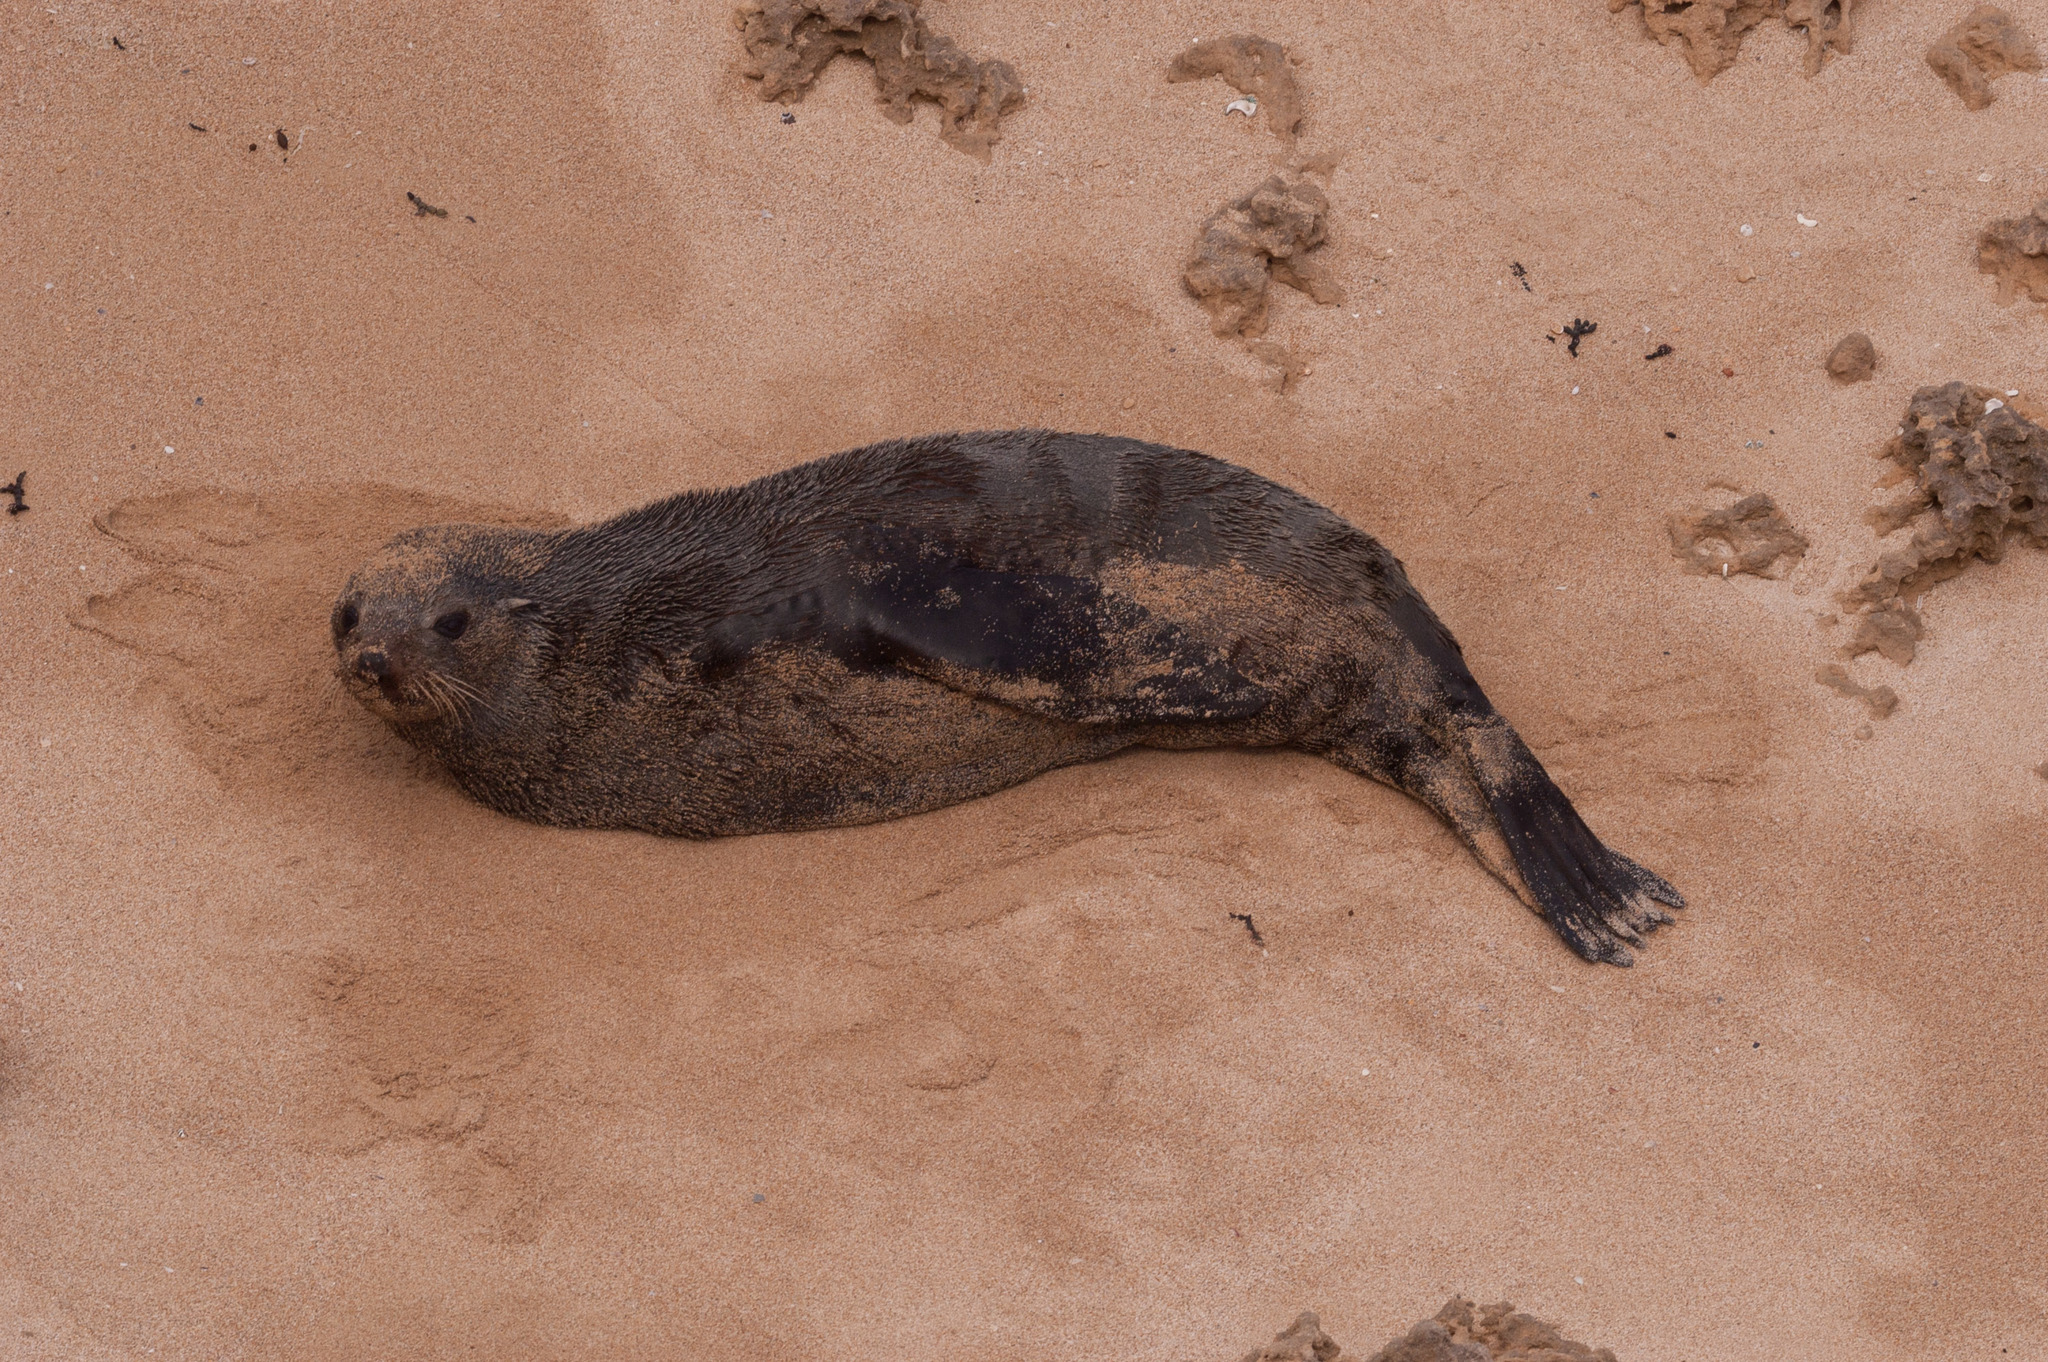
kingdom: Animalia
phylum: Chordata
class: Mammalia
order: Carnivora
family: Otariidae
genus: Arctocephalus
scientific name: Arctocephalus forsteri
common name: New zealand fur seal
